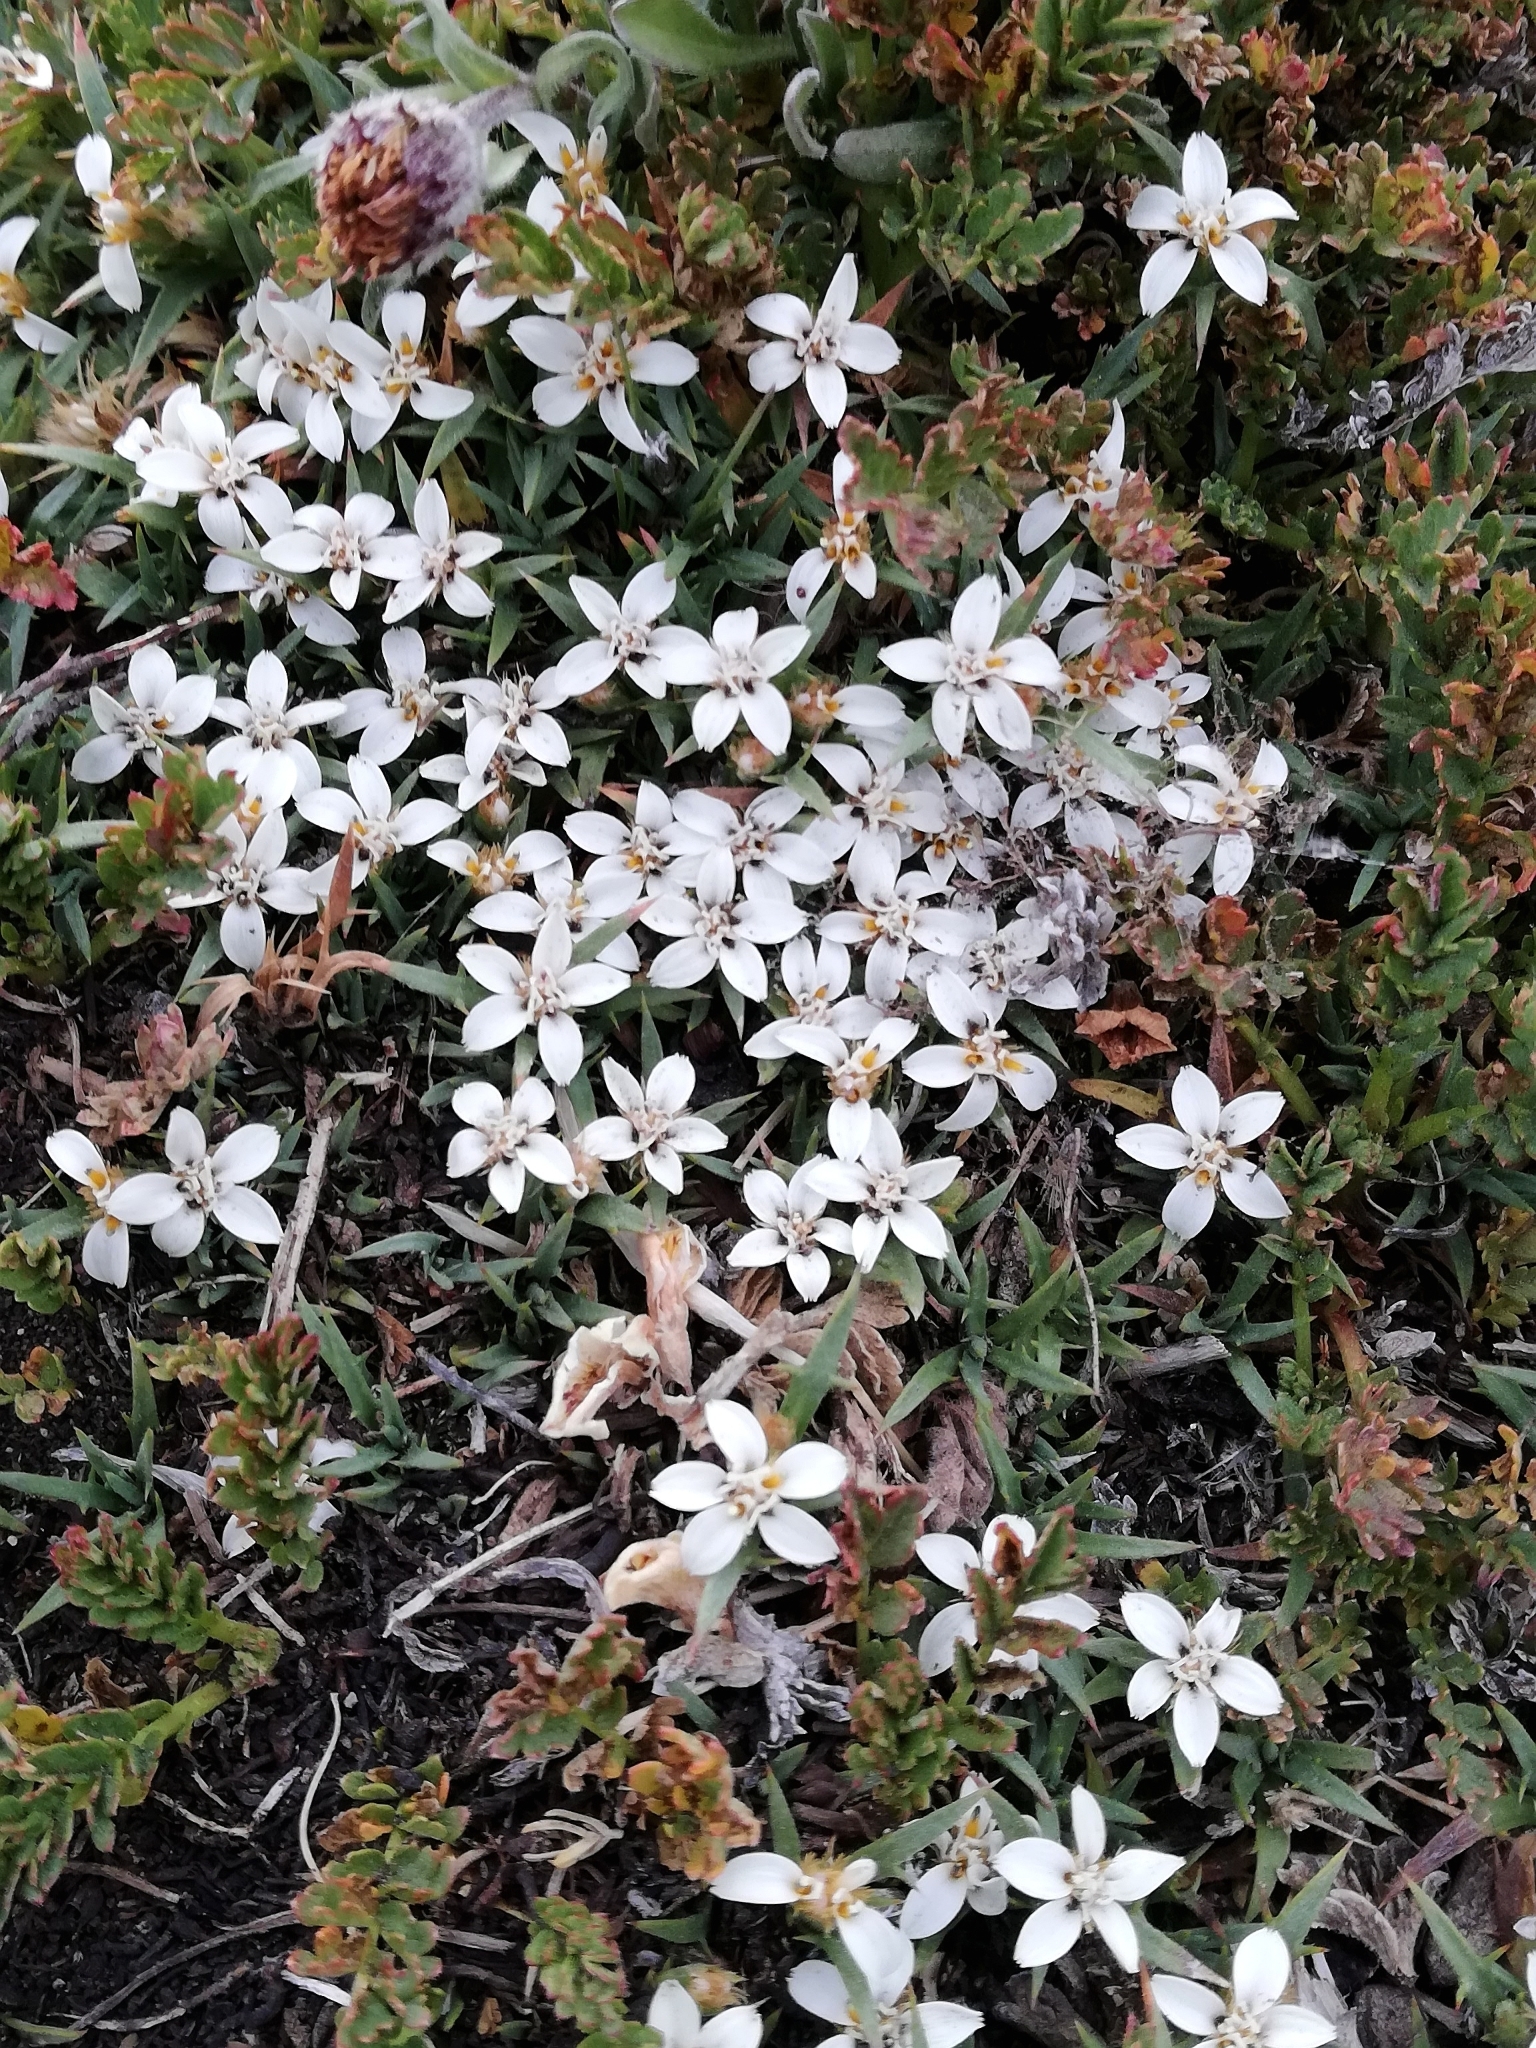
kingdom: Plantae
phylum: Tracheophyta
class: Magnoliopsida
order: Asterales
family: Asteraceae
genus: Nassauvia
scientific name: Nassauvia aculeata
